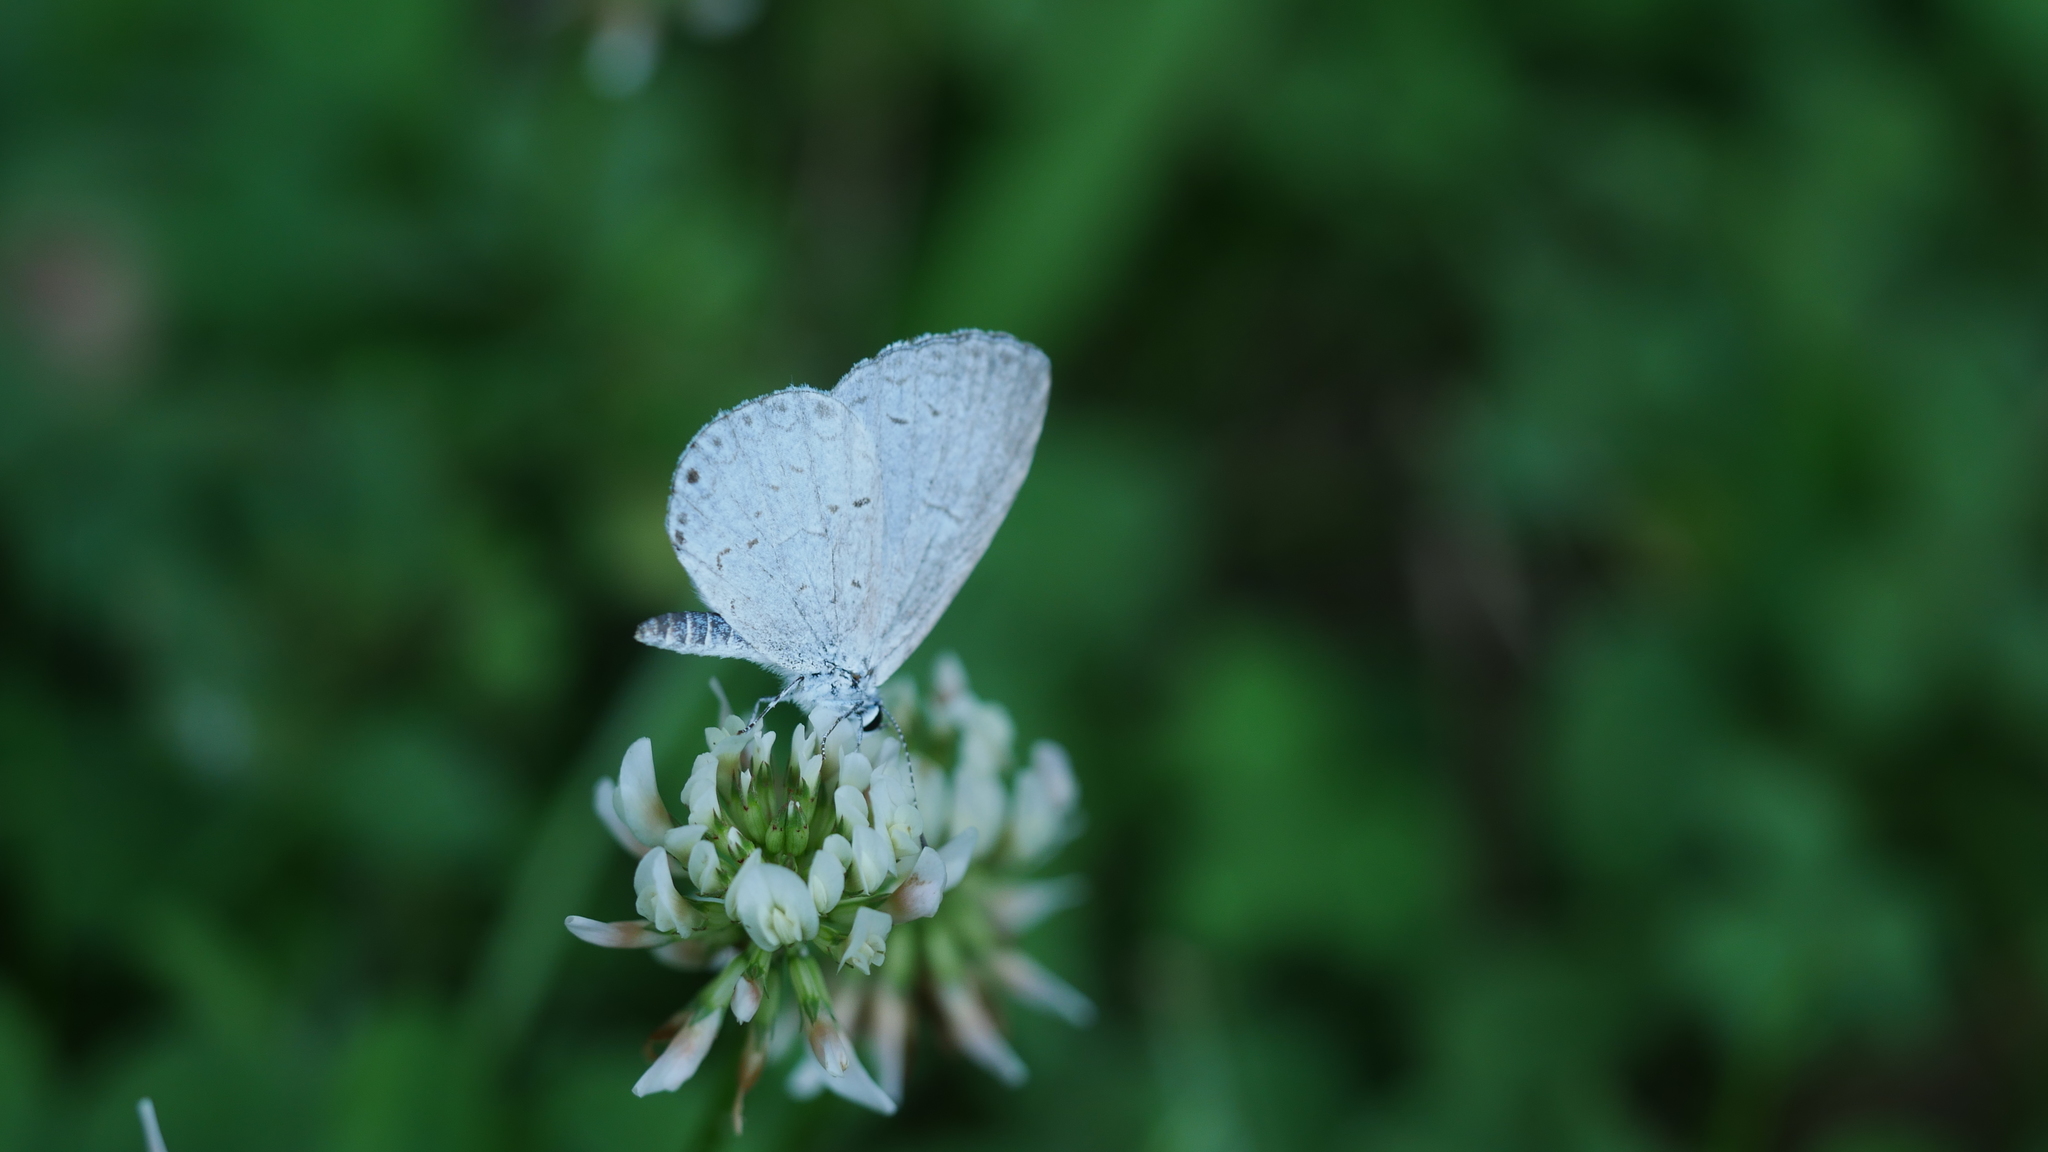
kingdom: Animalia
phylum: Arthropoda
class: Insecta
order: Lepidoptera
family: Lycaenidae
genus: Cyaniris
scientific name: Cyaniris neglecta
